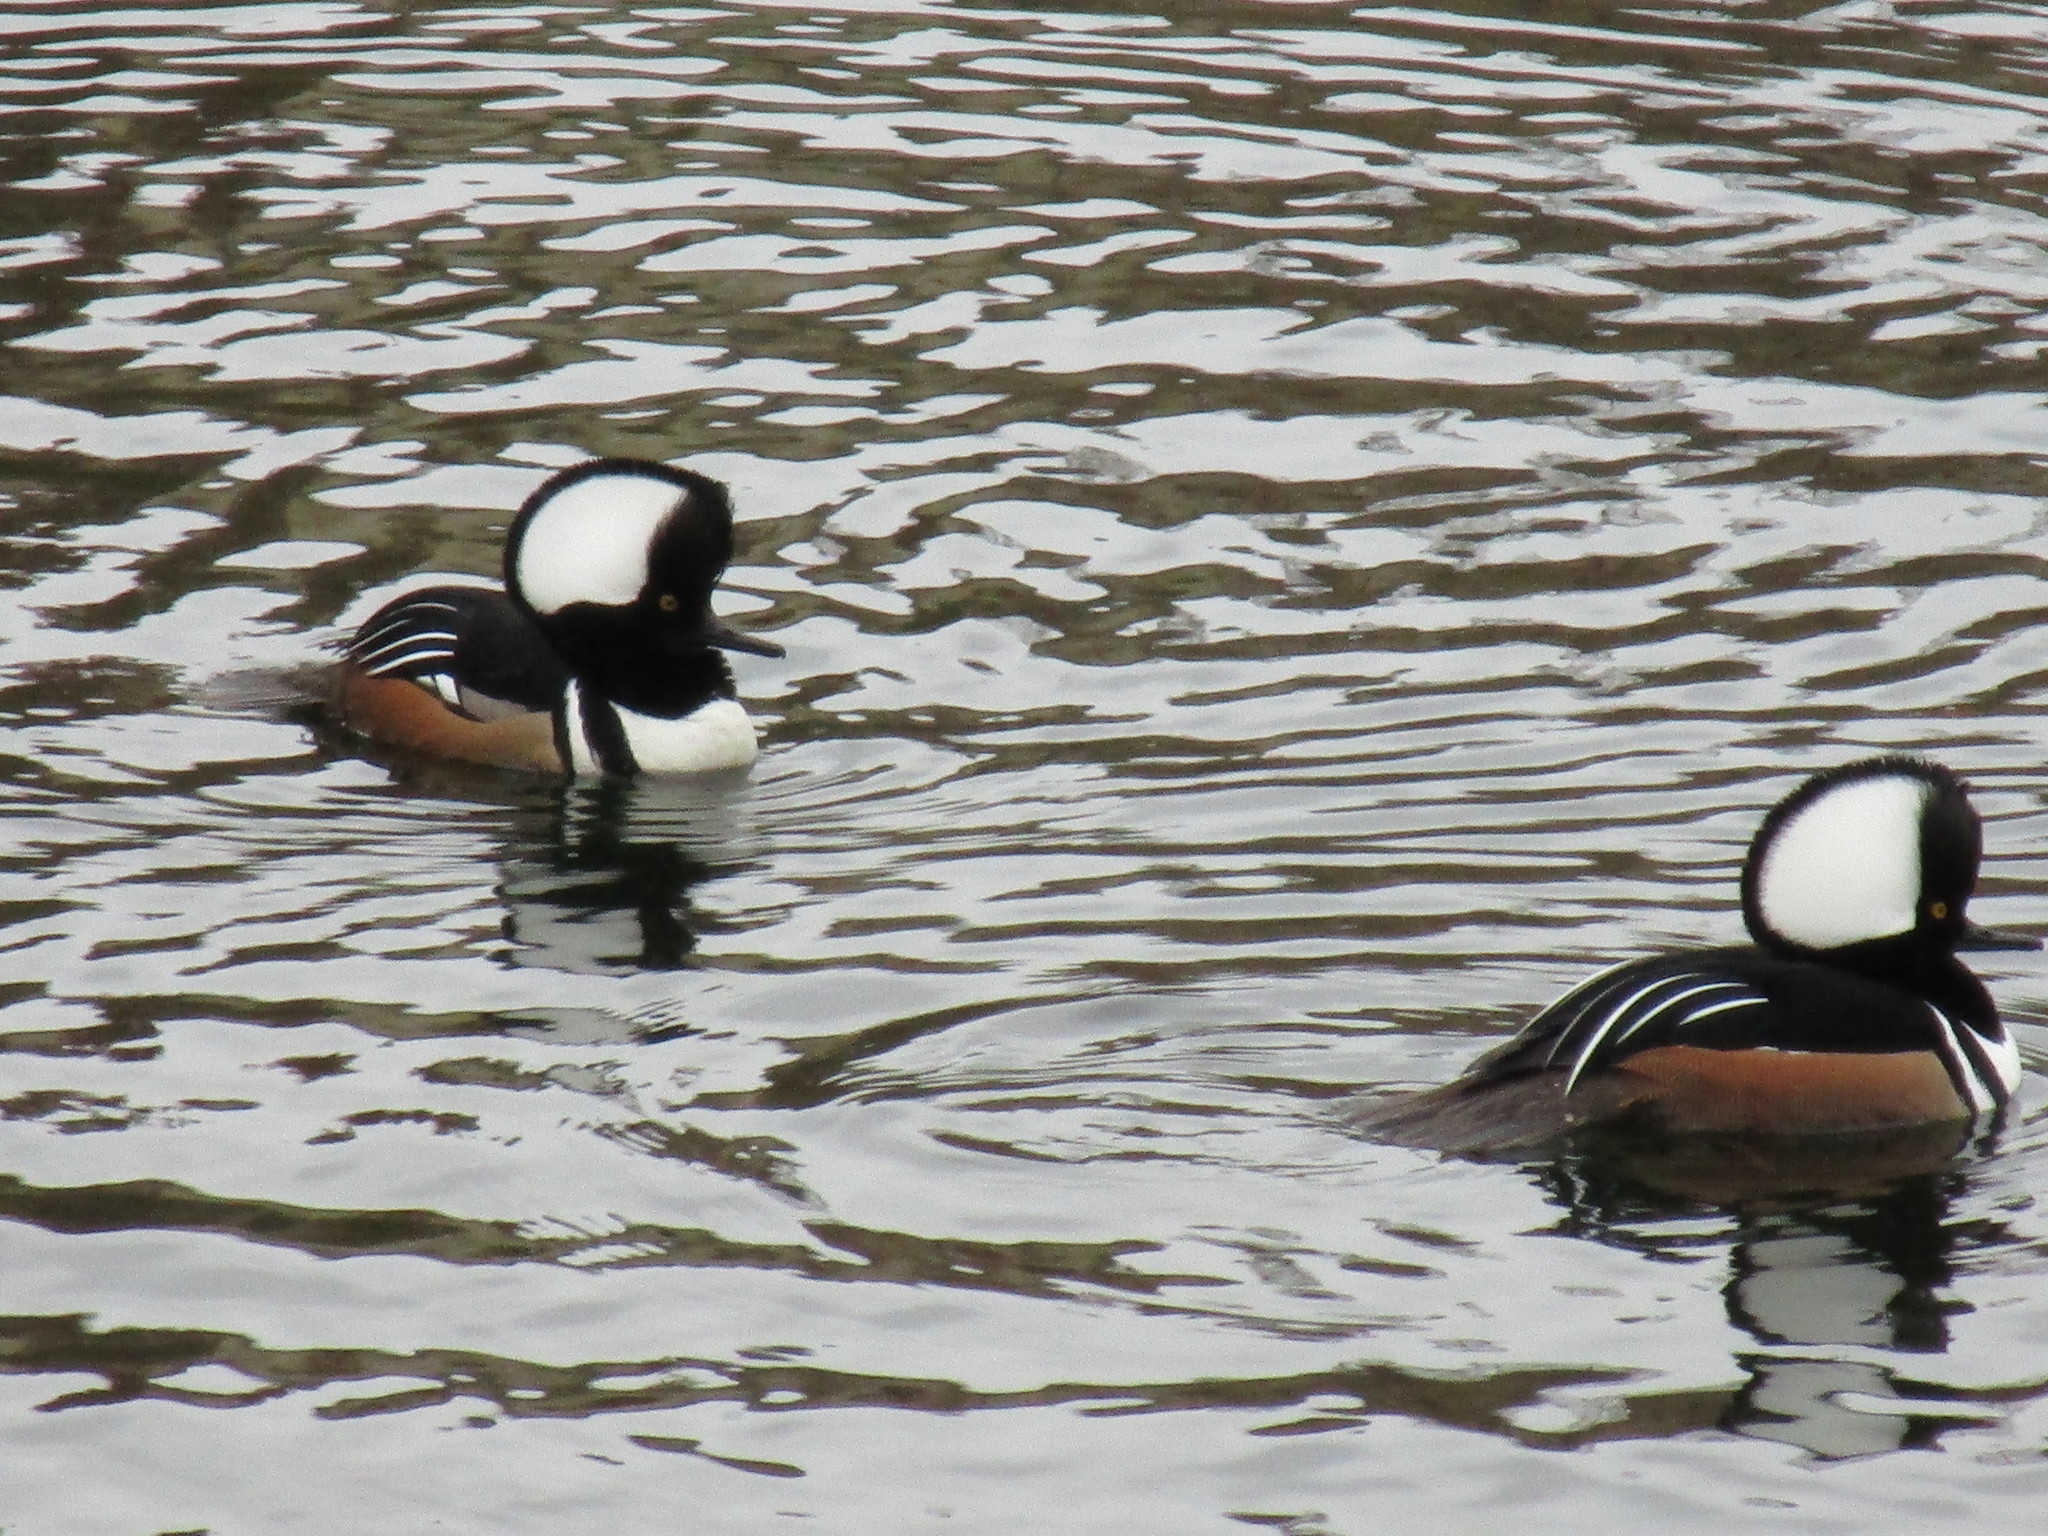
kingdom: Animalia
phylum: Chordata
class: Aves
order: Anseriformes
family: Anatidae
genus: Lophodytes
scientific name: Lophodytes cucullatus
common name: Hooded merganser
